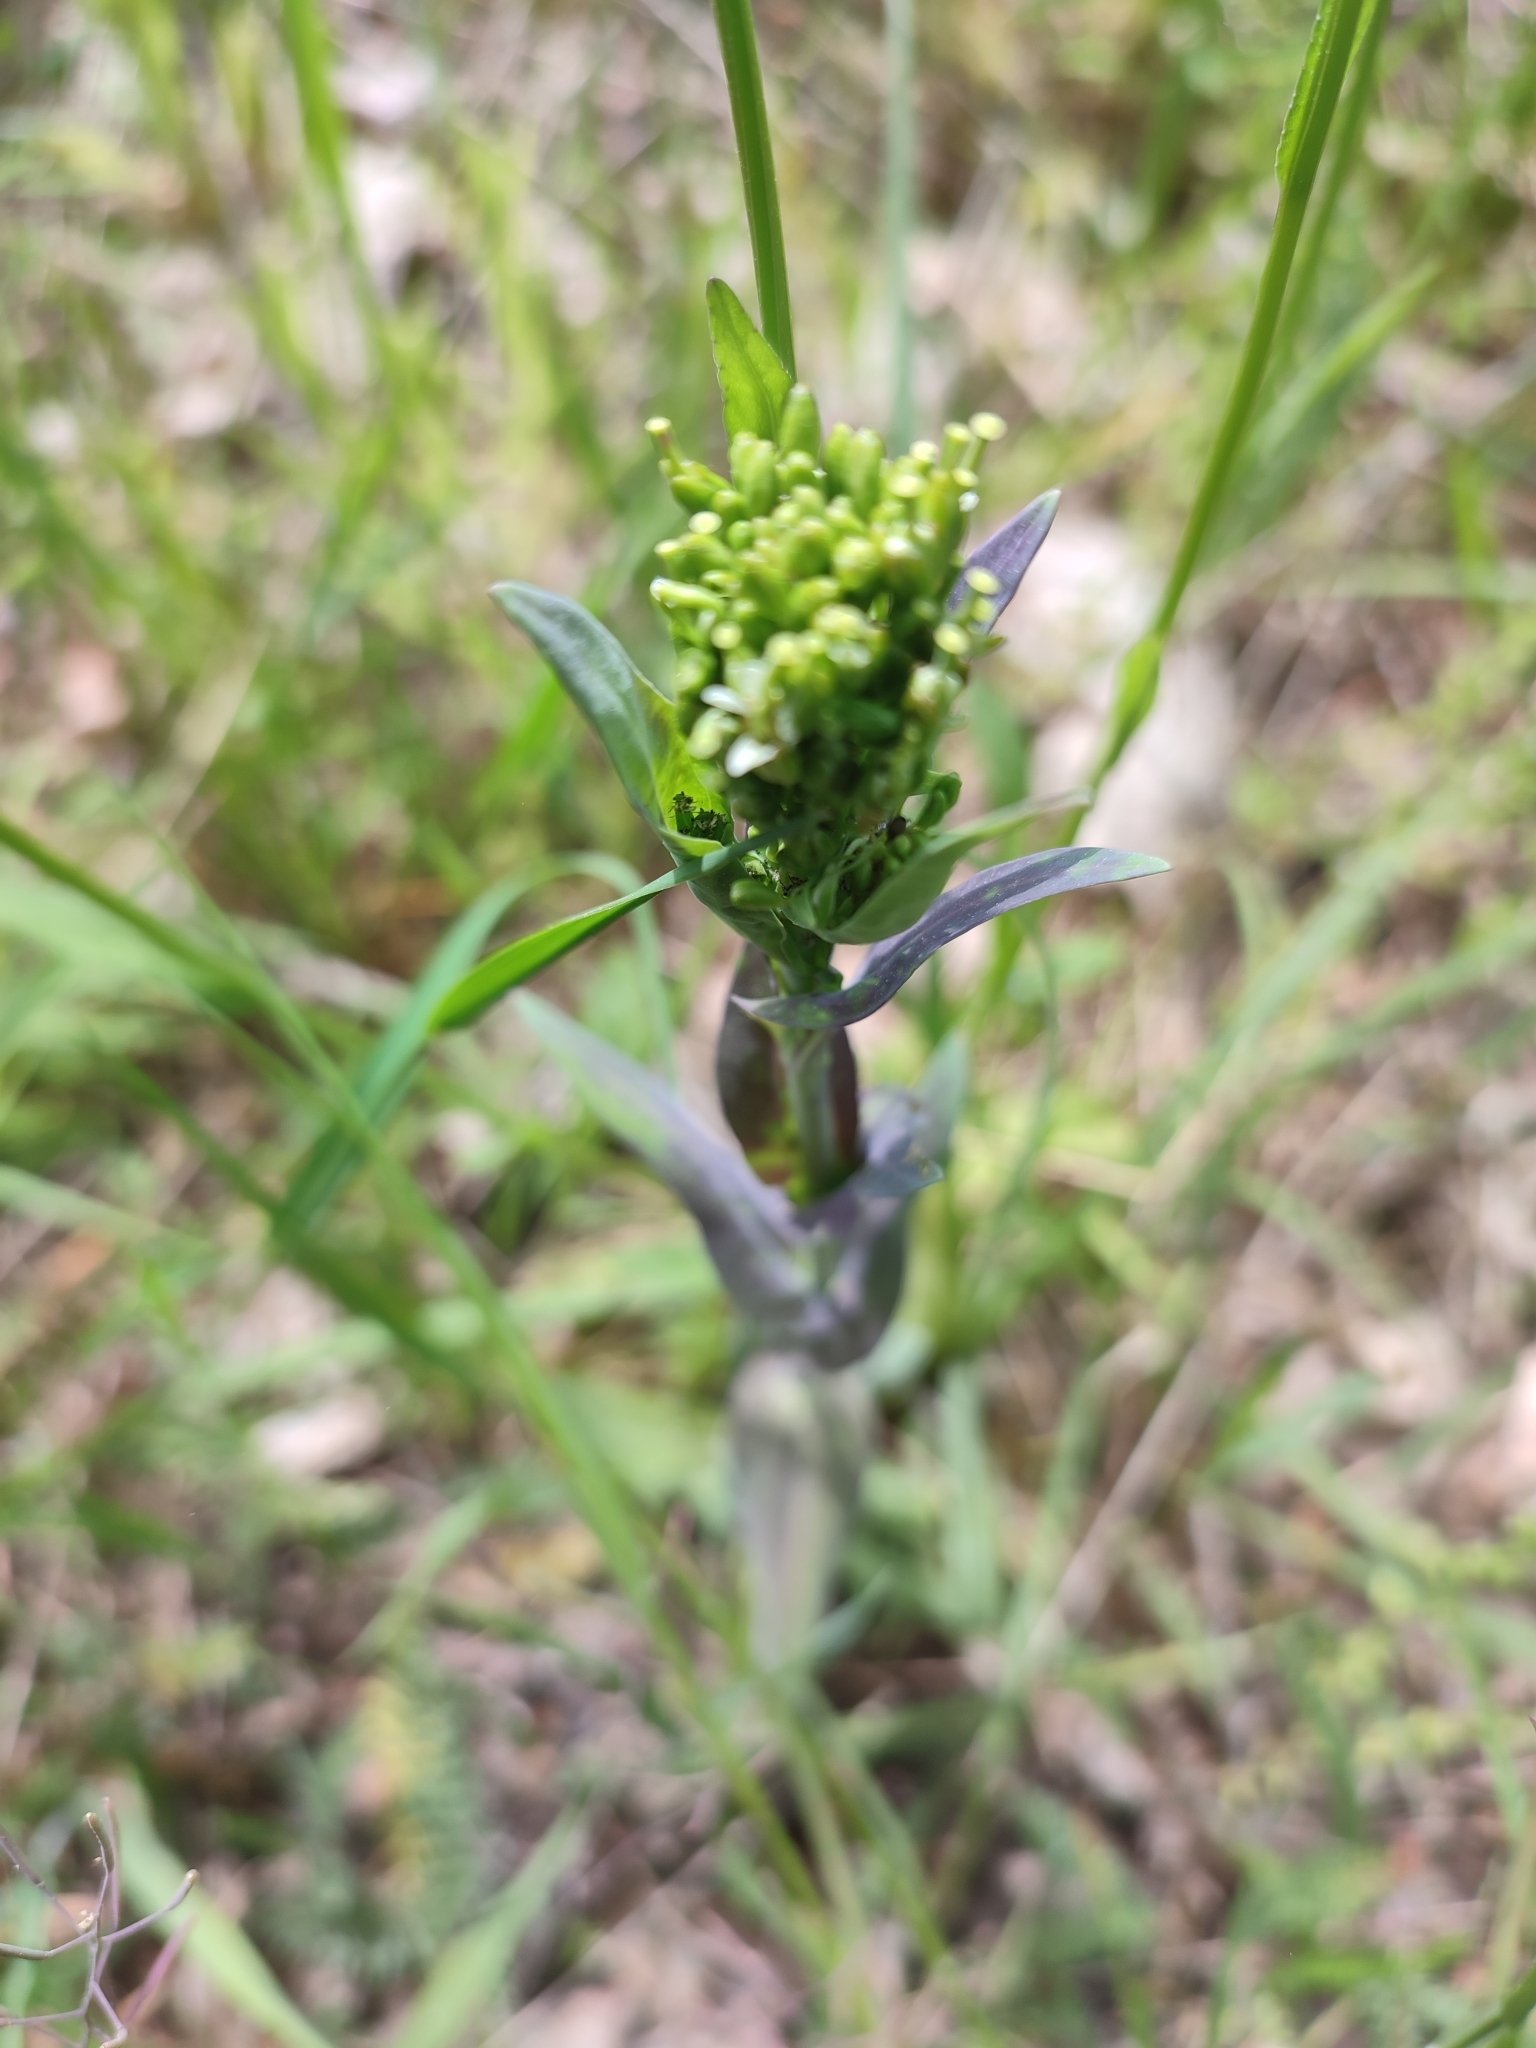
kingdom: Plantae
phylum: Tracheophyta
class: Magnoliopsida
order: Brassicales
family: Brassicaceae
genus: Turritis
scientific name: Turritis glabra
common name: Tower rockcress
